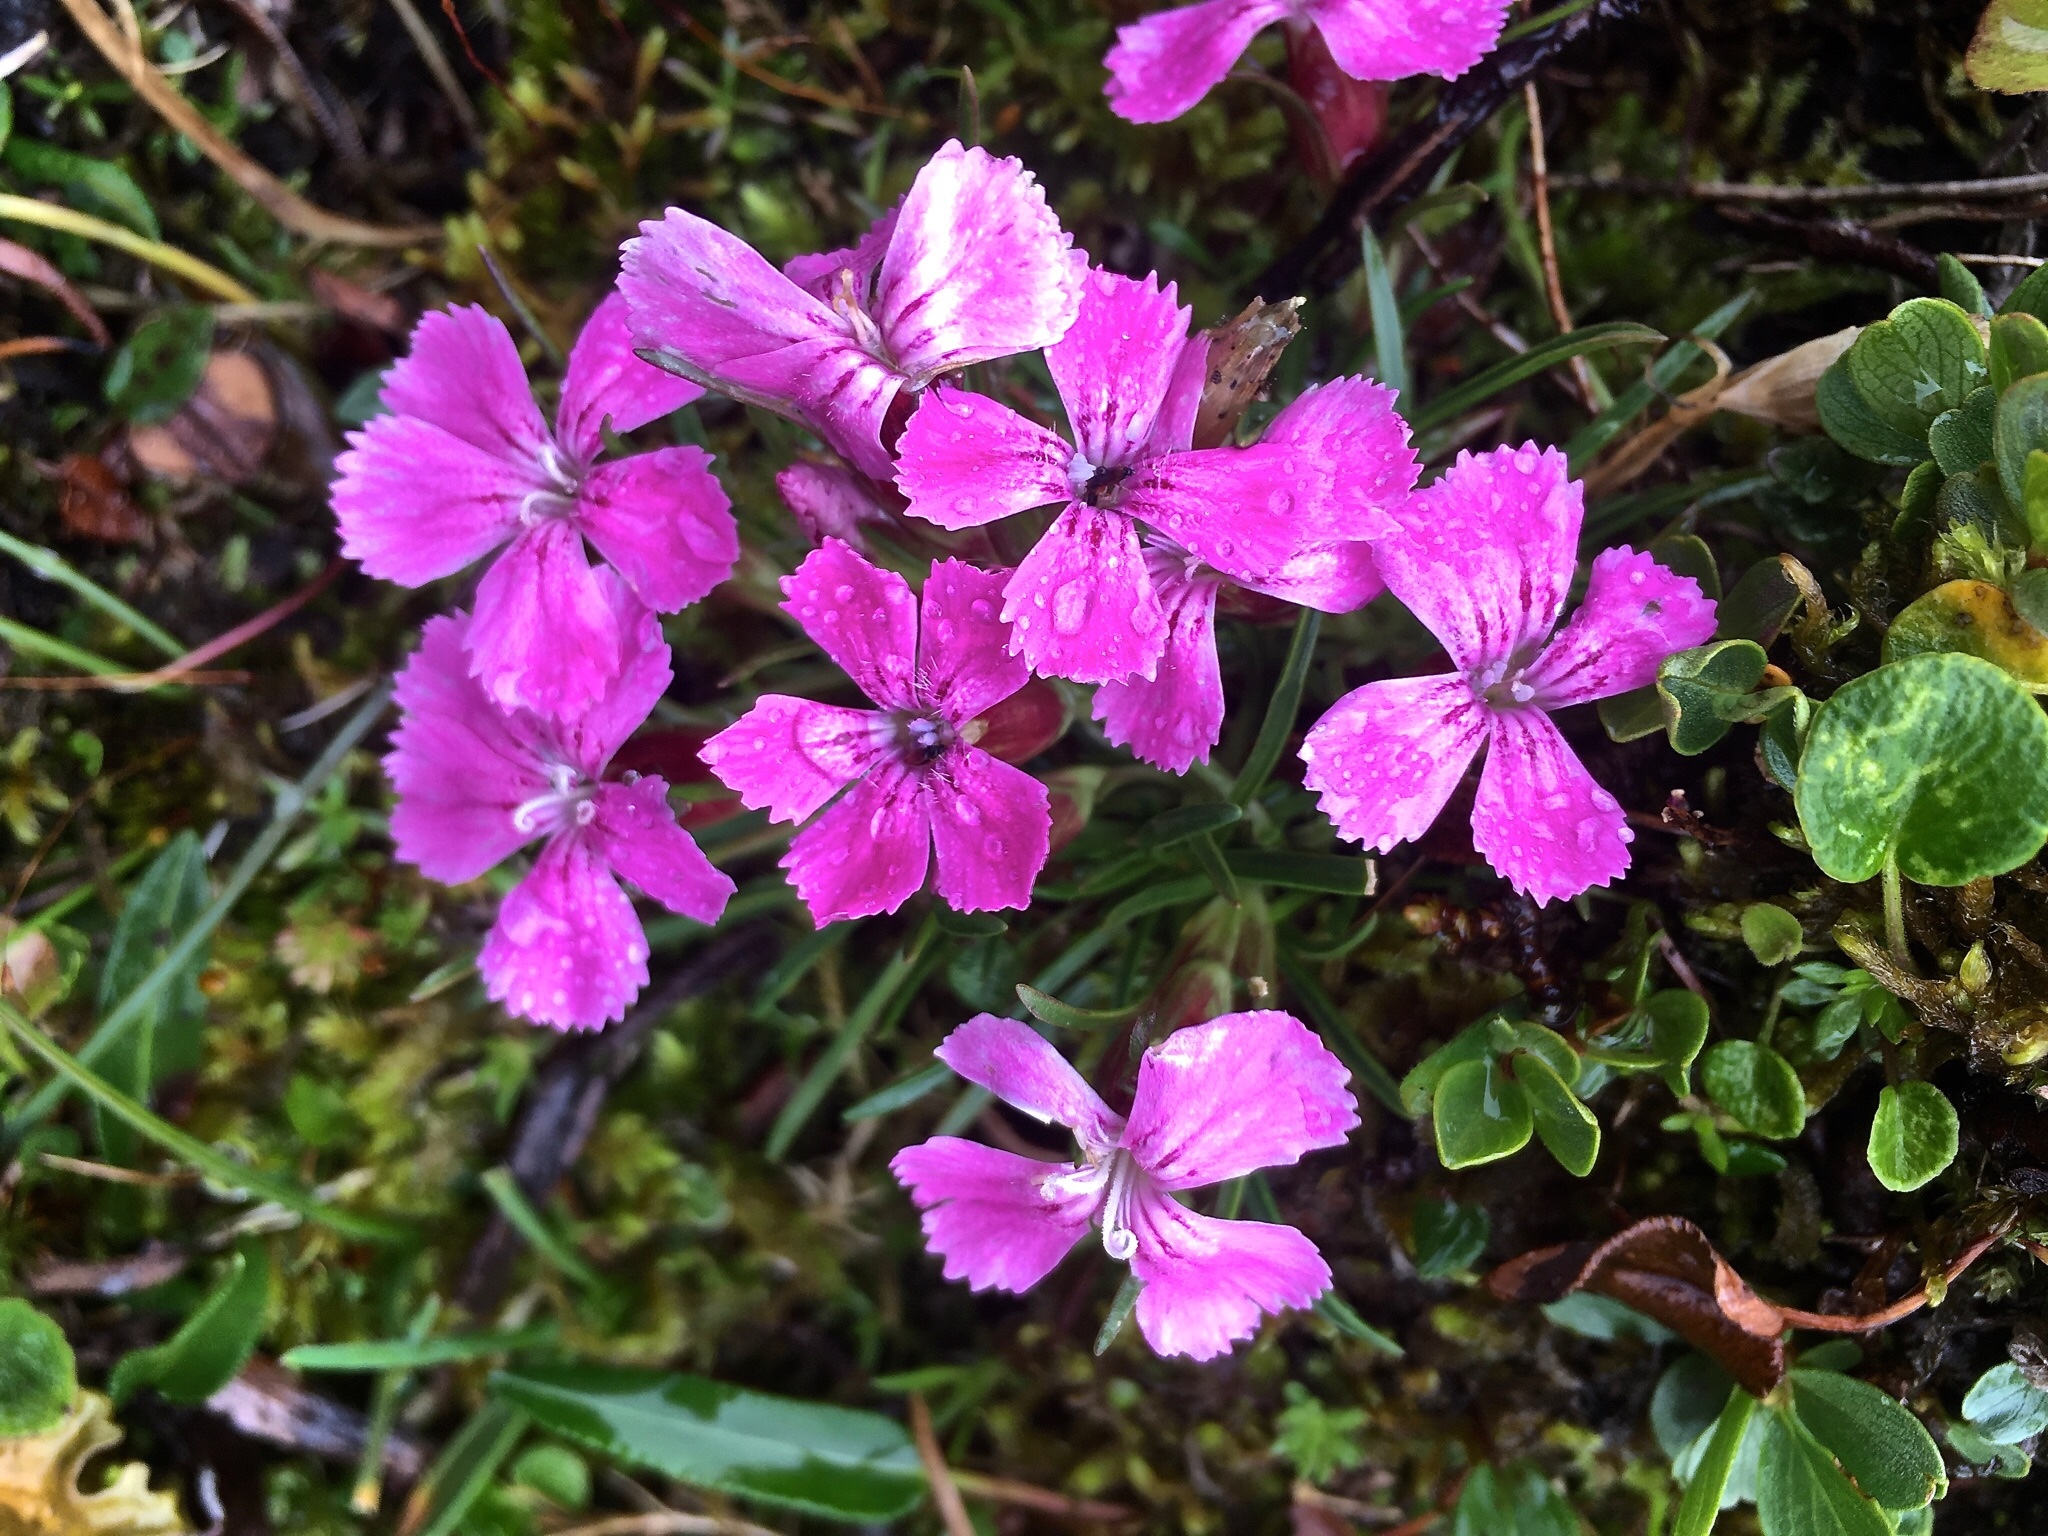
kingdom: Plantae
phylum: Tracheophyta
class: Magnoliopsida
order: Caryophyllales
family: Caryophyllaceae
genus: Dianthus
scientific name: Dianthus glacialis
